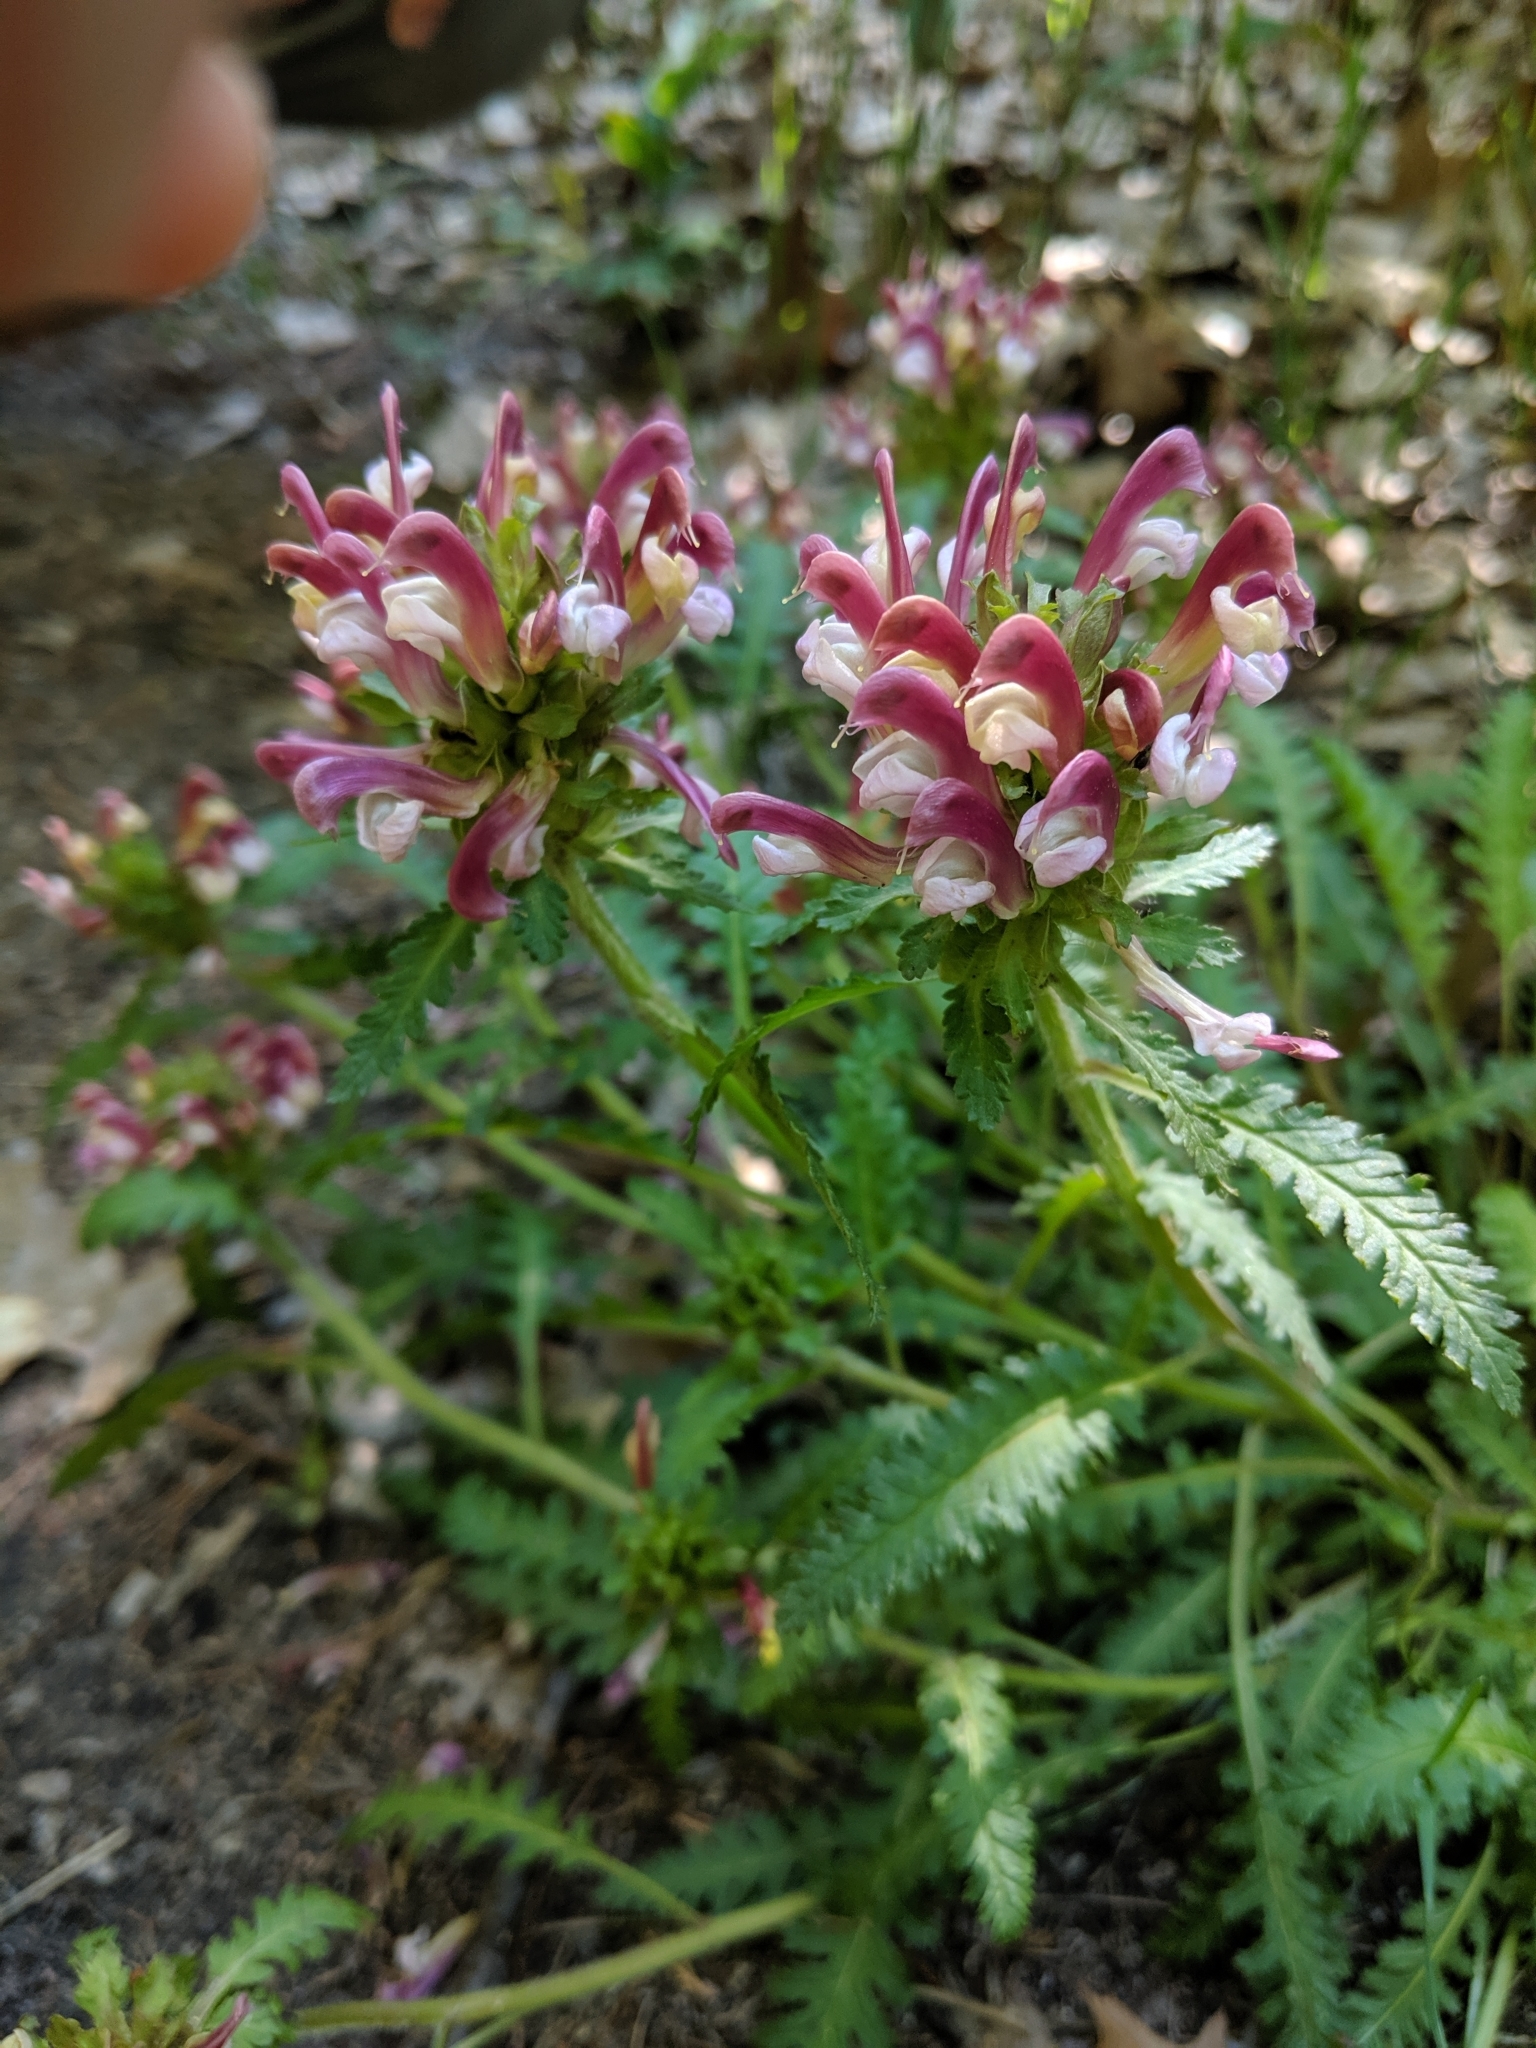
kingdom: Plantae
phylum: Tracheophyta
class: Magnoliopsida
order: Lamiales
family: Orobanchaceae
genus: Pedicularis
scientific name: Pedicularis canadensis
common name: Early lousewort
